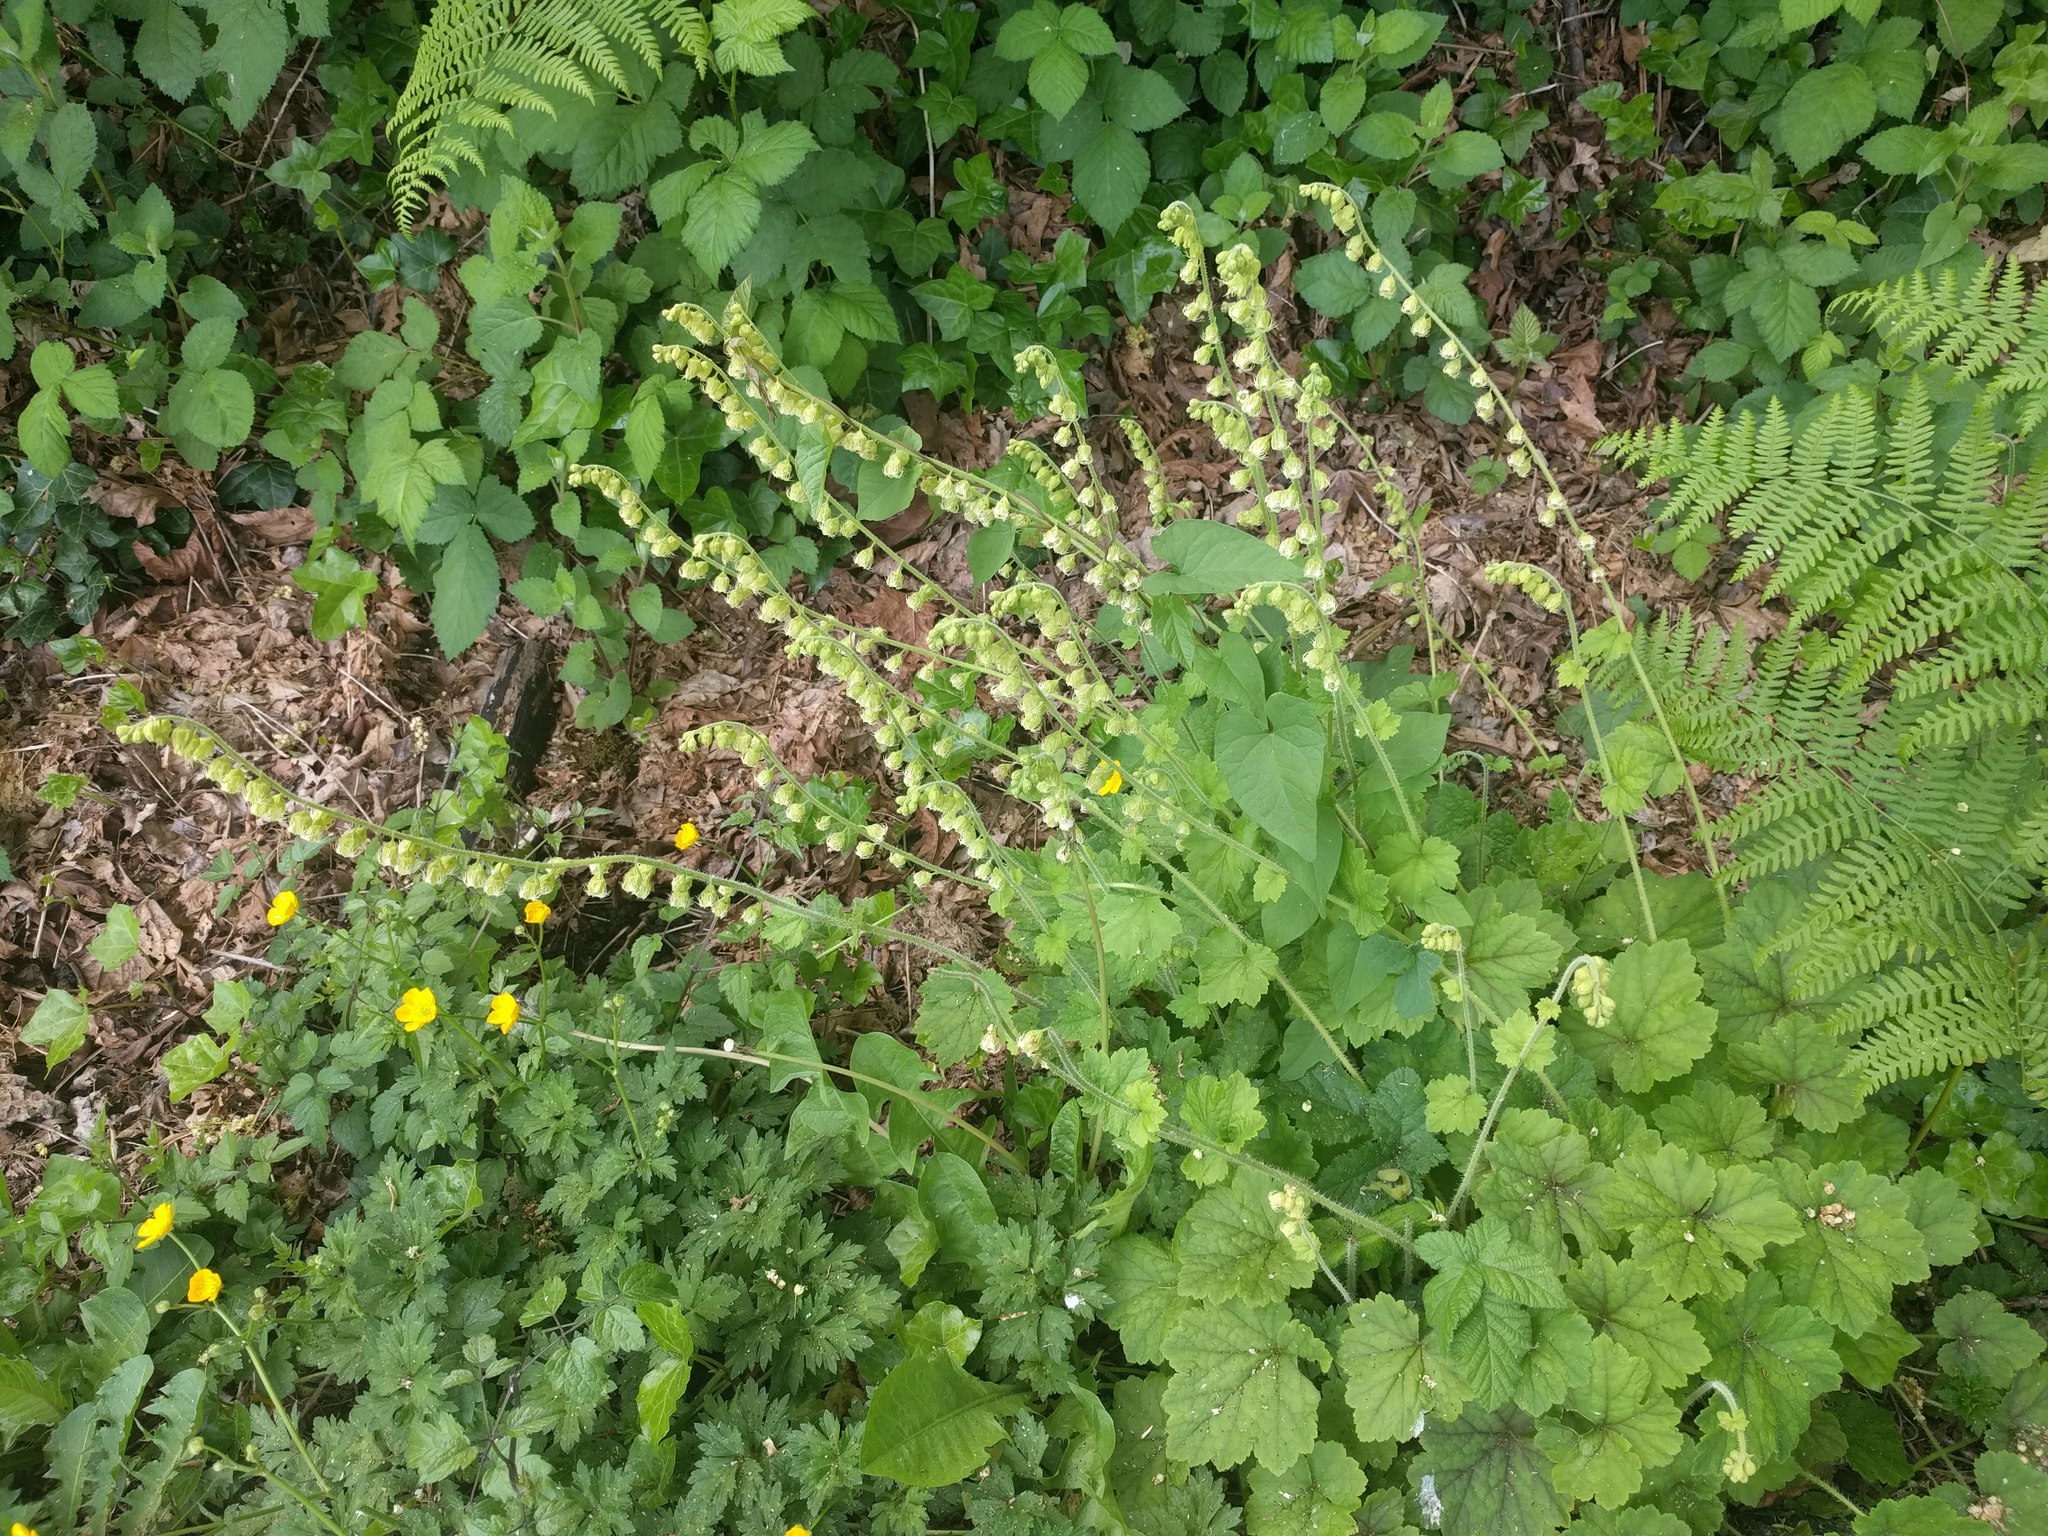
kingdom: Plantae
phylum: Tracheophyta
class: Magnoliopsida
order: Saxifragales
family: Saxifragaceae
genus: Tellima
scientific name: Tellima grandiflora
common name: Fringecups
